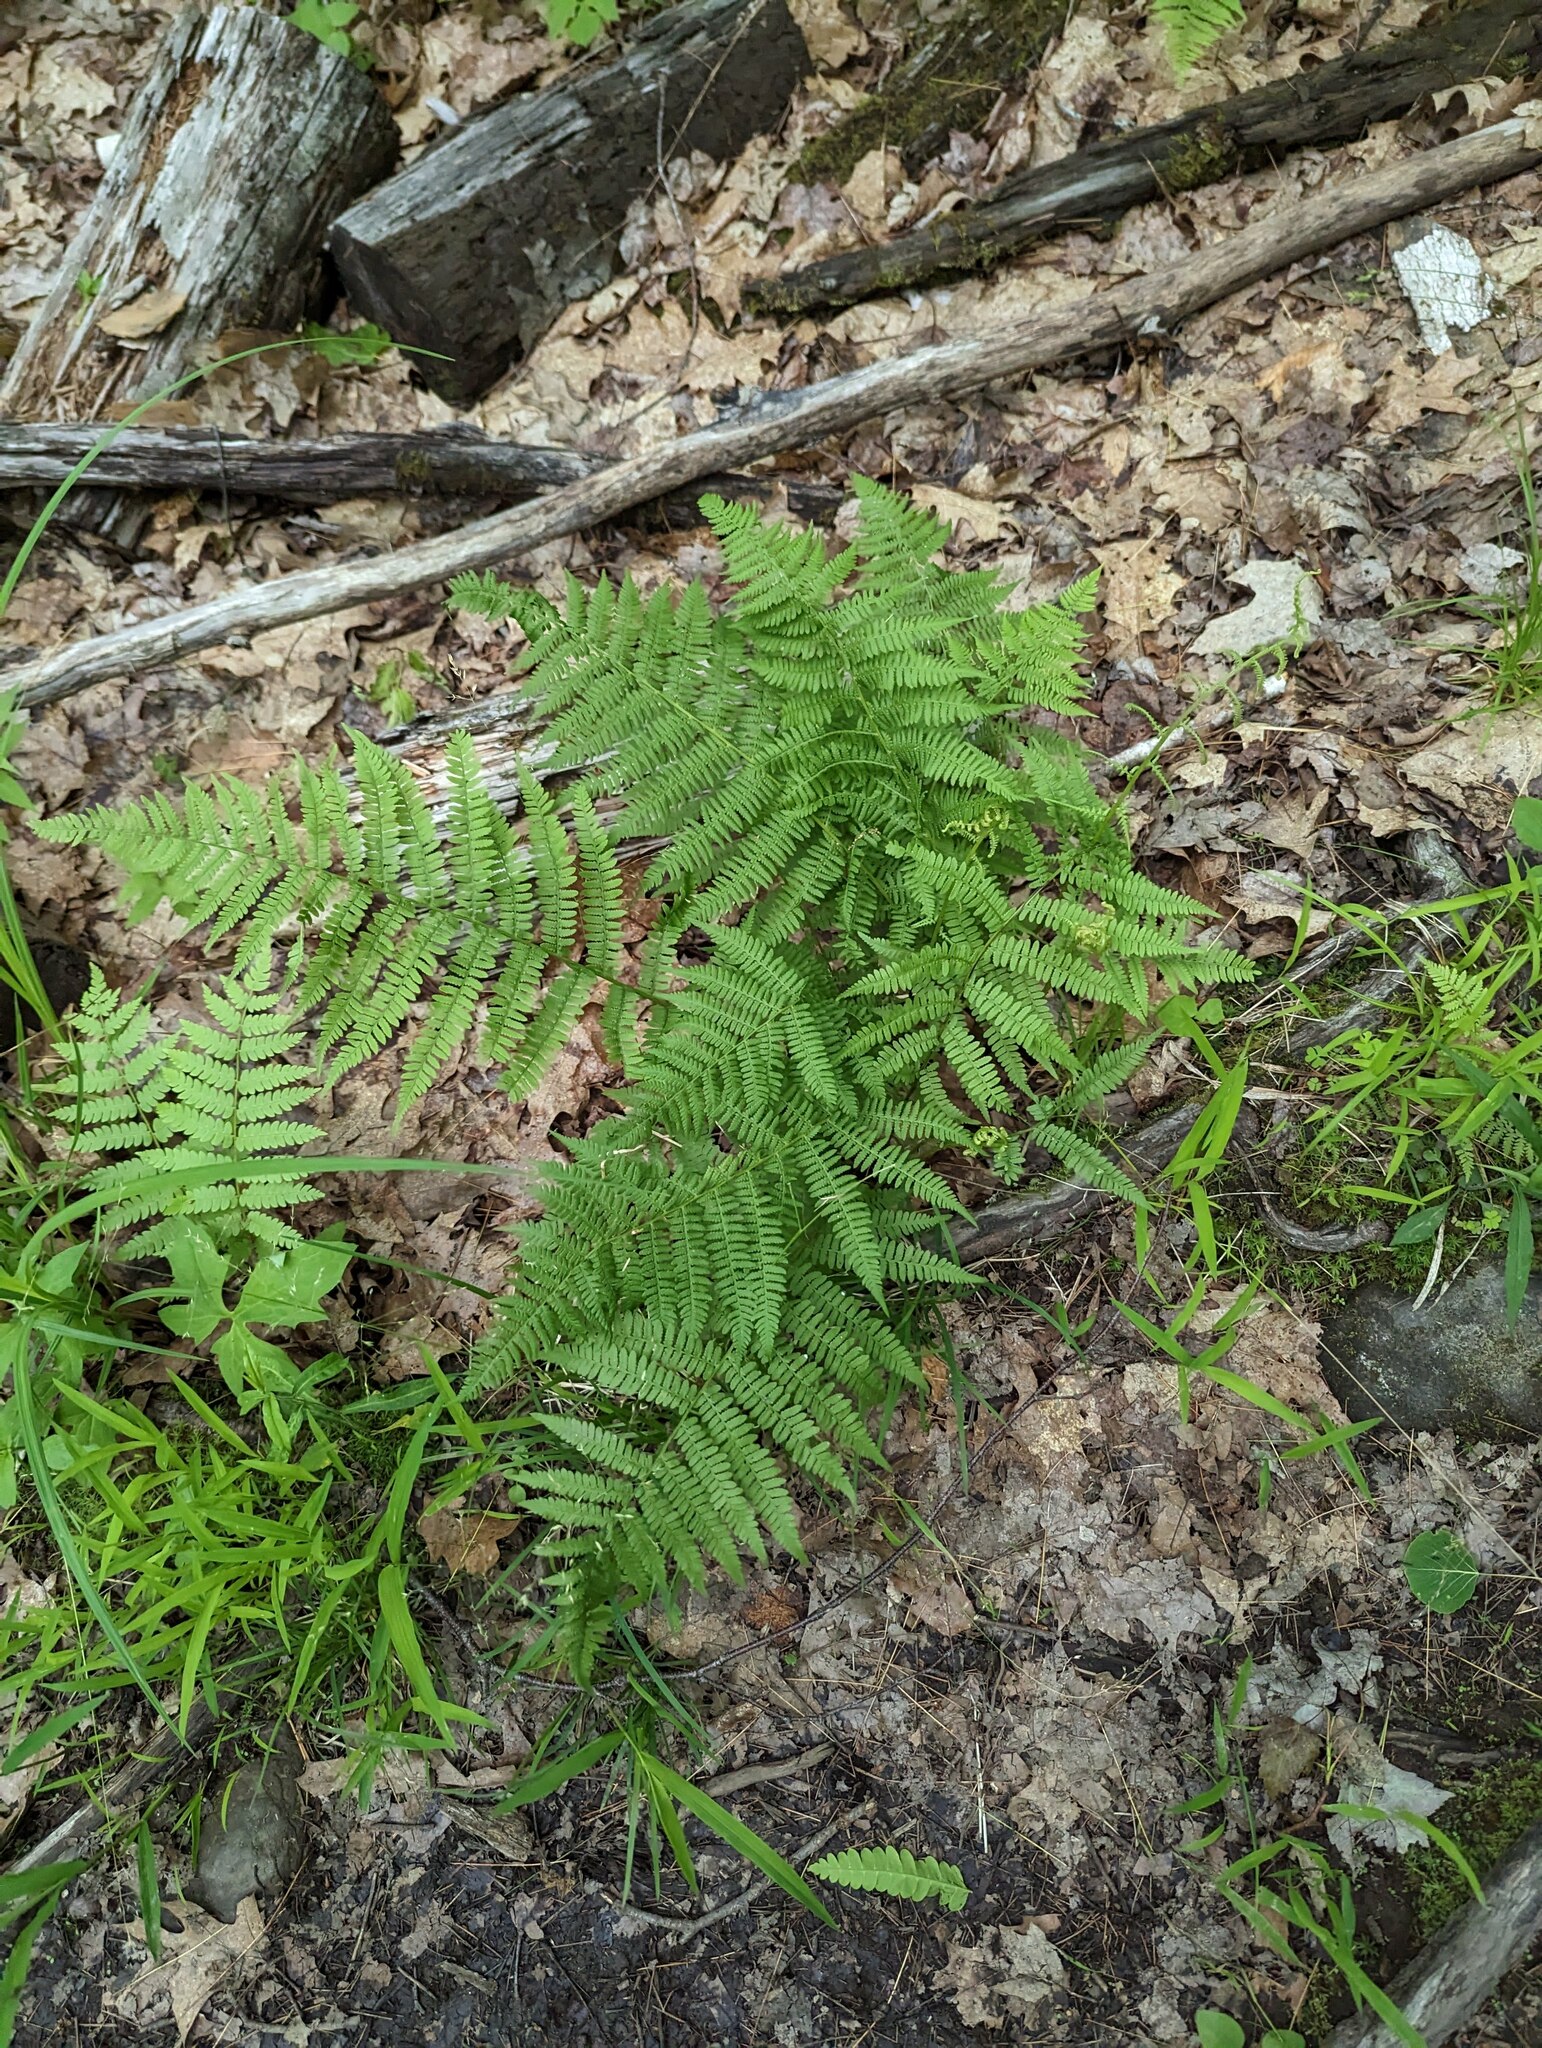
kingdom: Plantae
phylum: Tracheophyta
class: Polypodiopsida
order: Polypodiales
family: Athyriaceae
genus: Athyrium
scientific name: Athyrium angustum
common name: Northern lady fern
